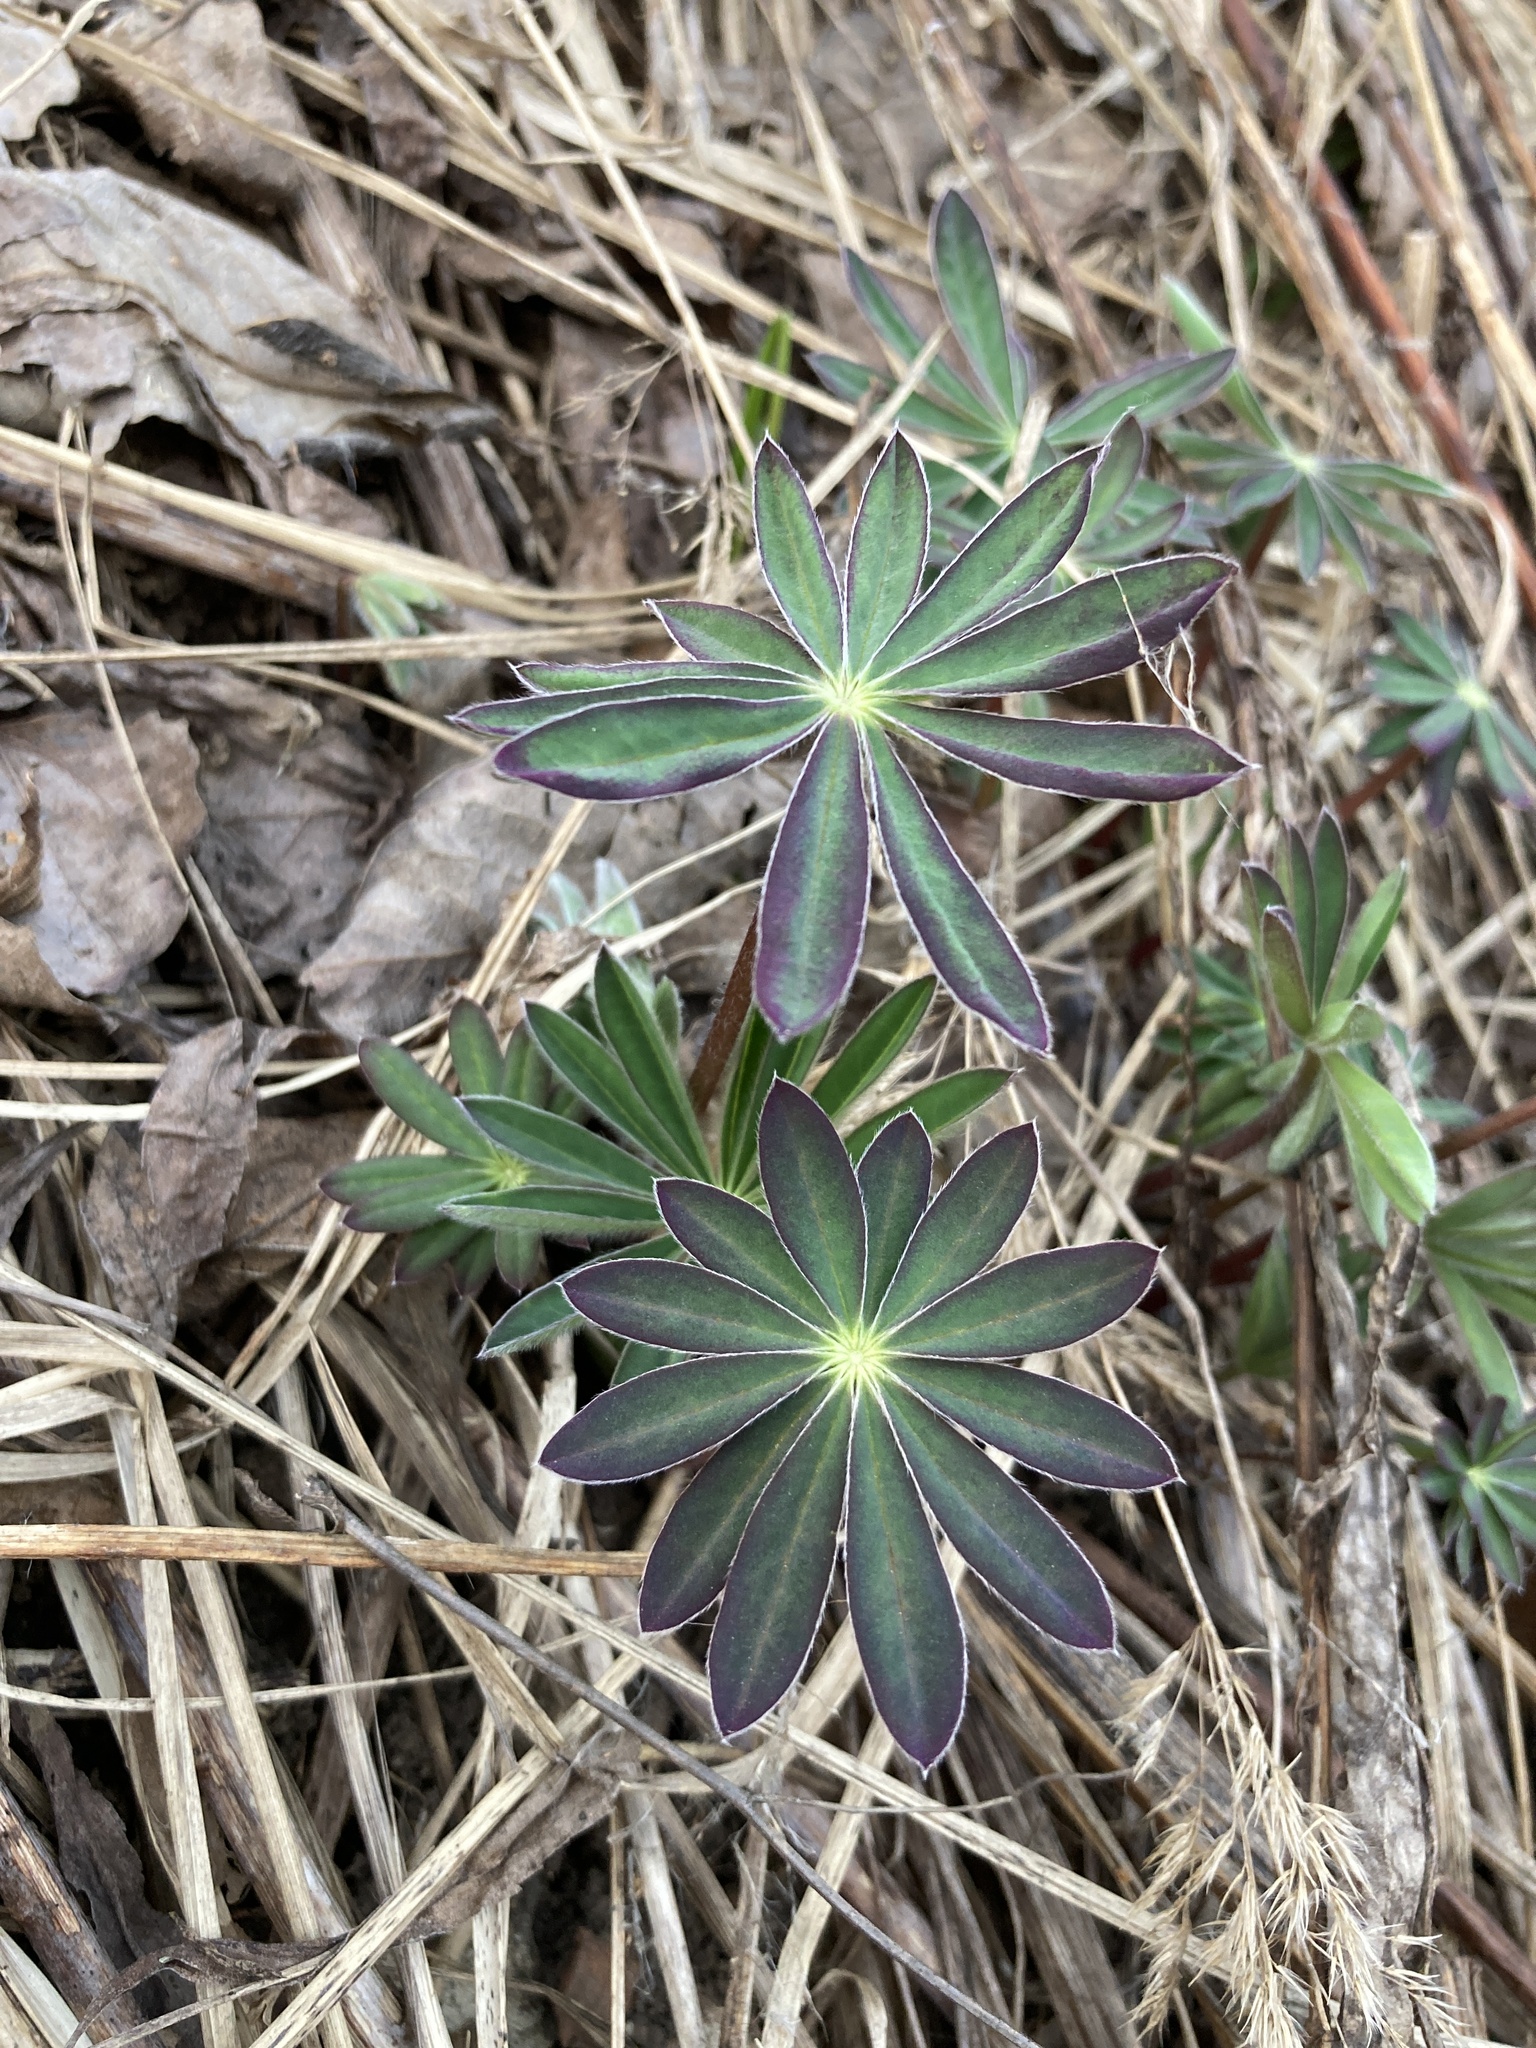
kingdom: Plantae
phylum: Tracheophyta
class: Magnoliopsida
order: Fabales
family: Fabaceae
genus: Lupinus
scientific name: Lupinus polyphyllus
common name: Garden lupin
